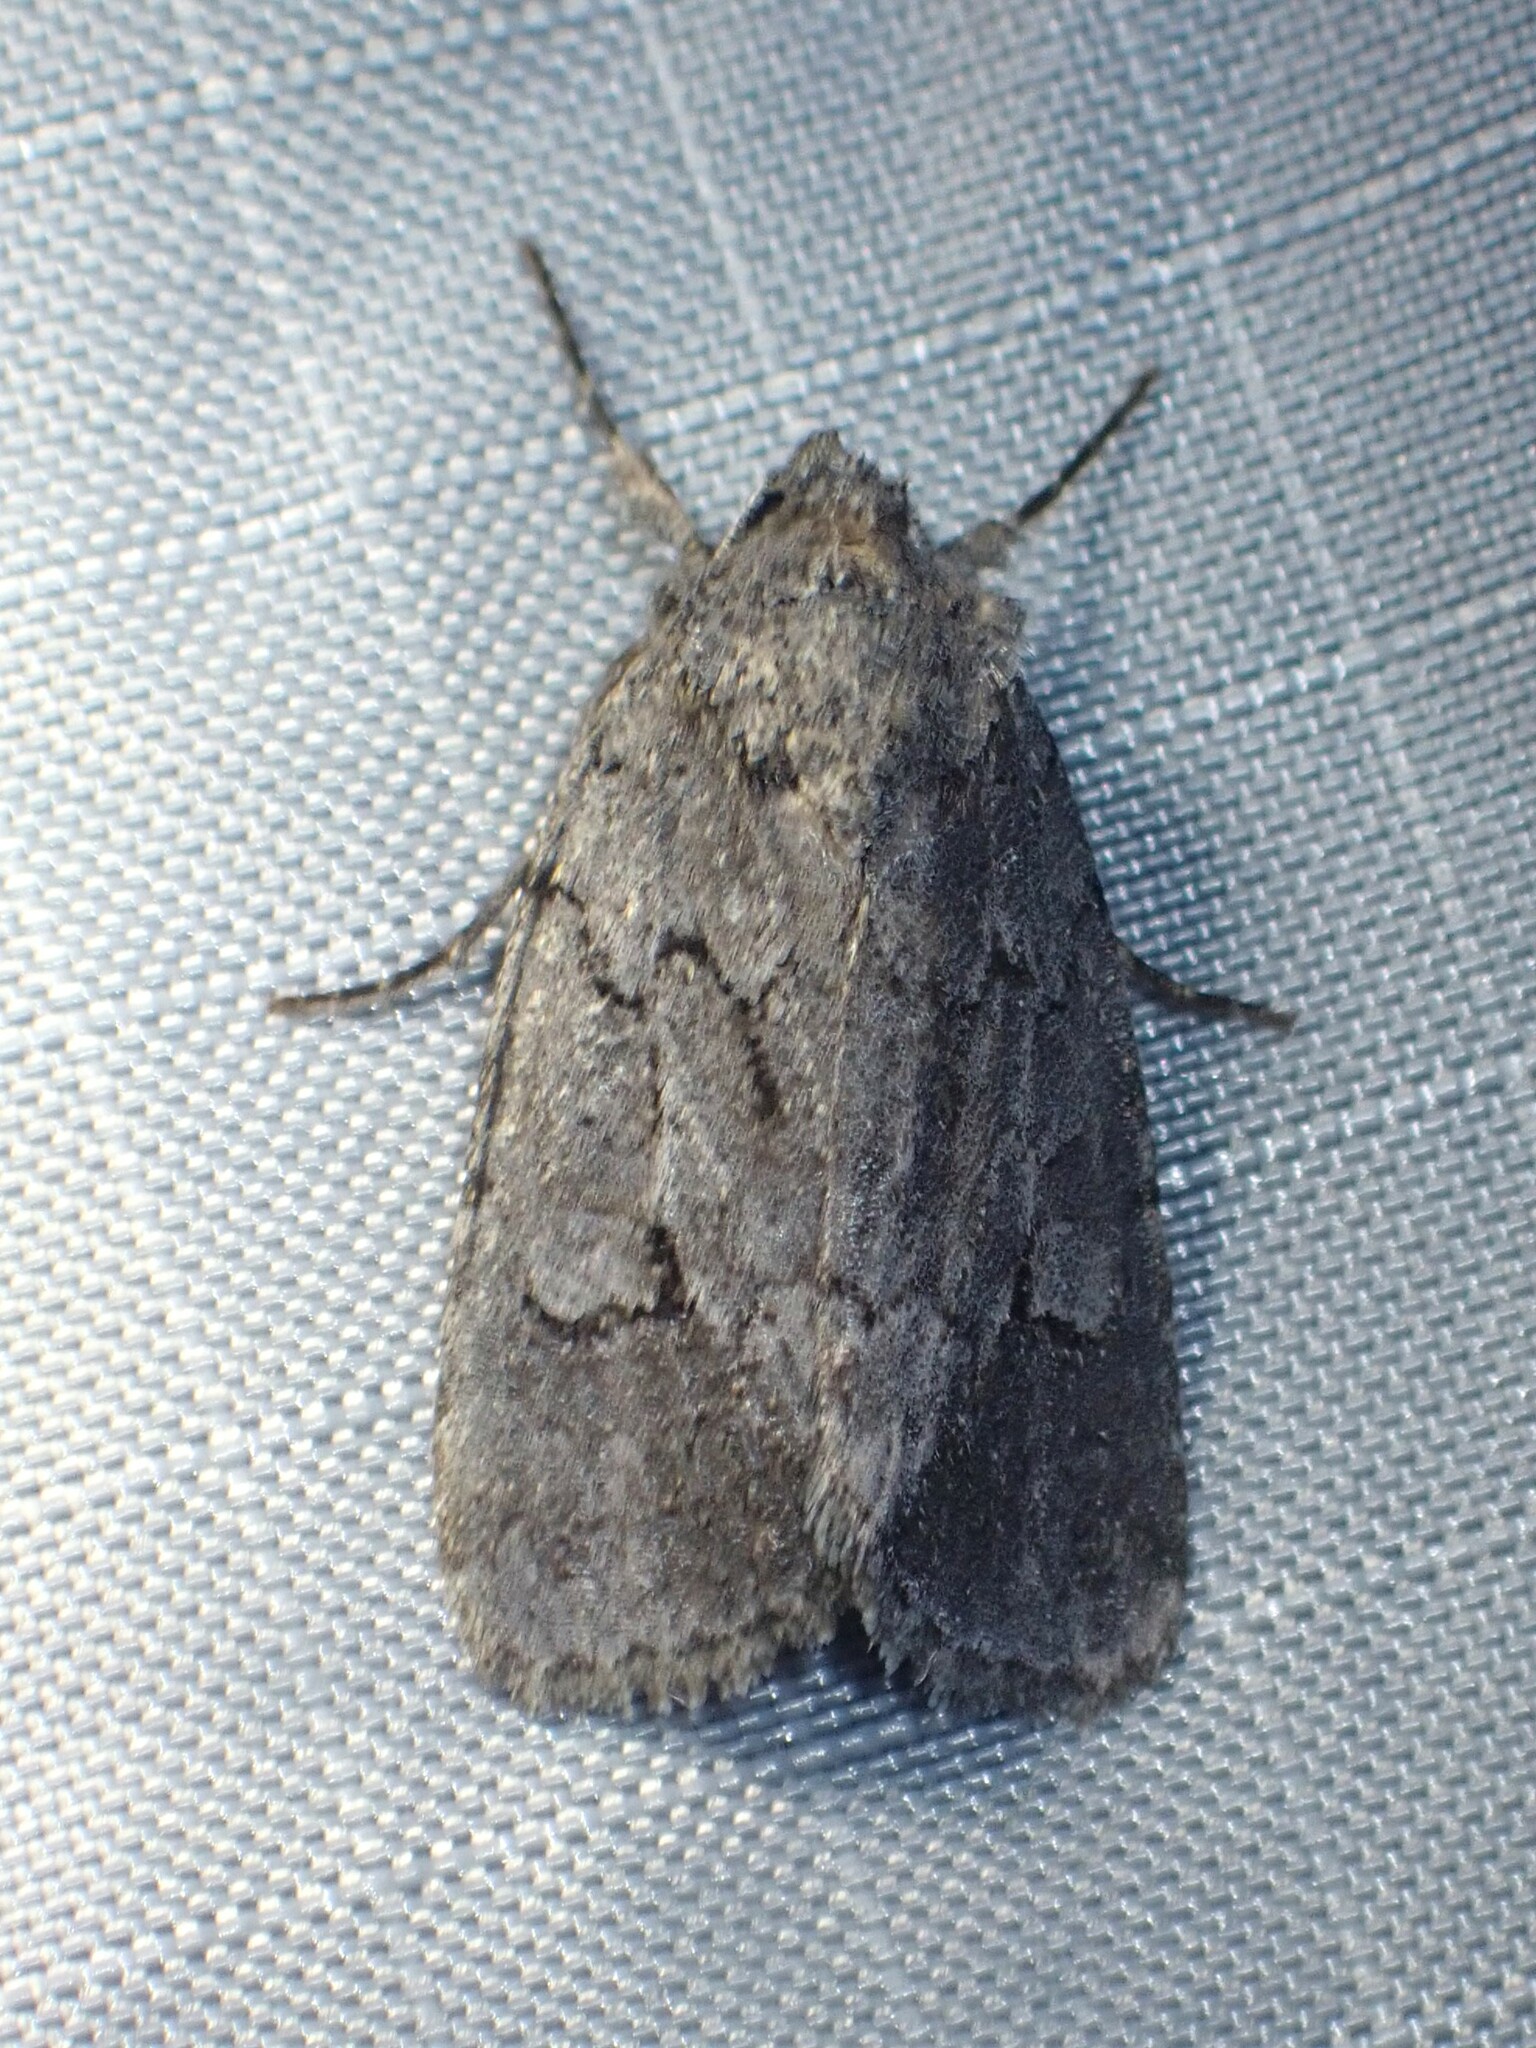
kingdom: Animalia
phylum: Arthropoda
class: Insecta
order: Lepidoptera
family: Noctuidae
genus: Sympistis
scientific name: Sympistis dentata
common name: Blueberry sallow
